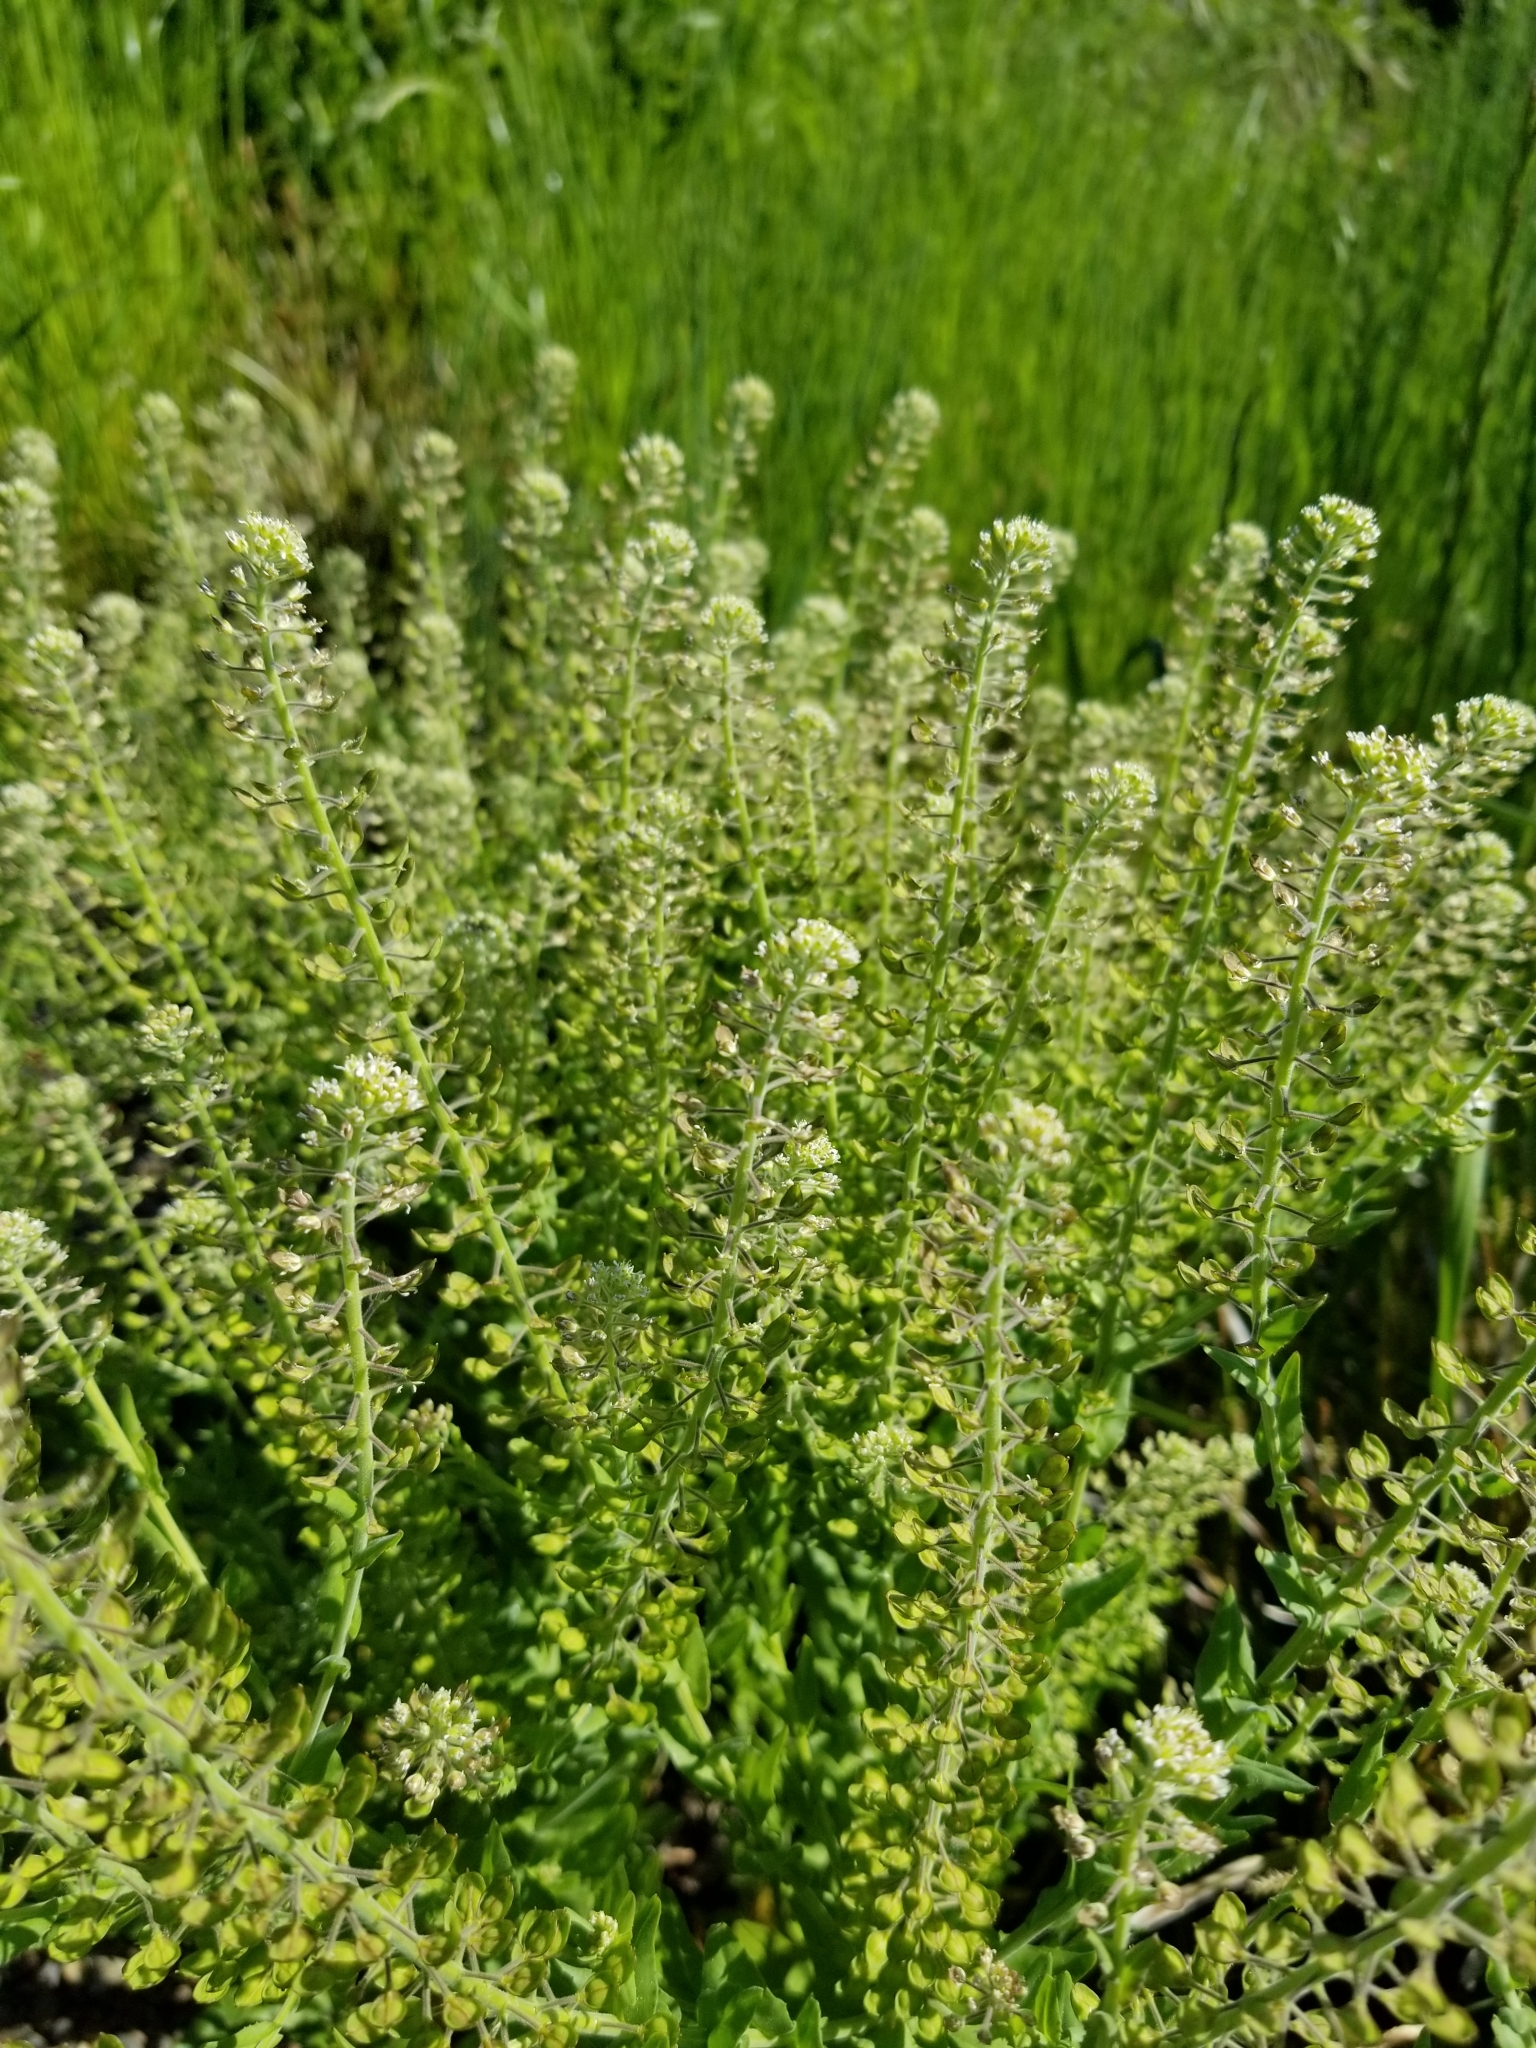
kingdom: Plantae
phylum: Tracheophyta
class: Magnoliopsida
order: Brassicales
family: Brassicaceae
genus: Lepidium
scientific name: Lepidium campestre
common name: Field pepperwort
